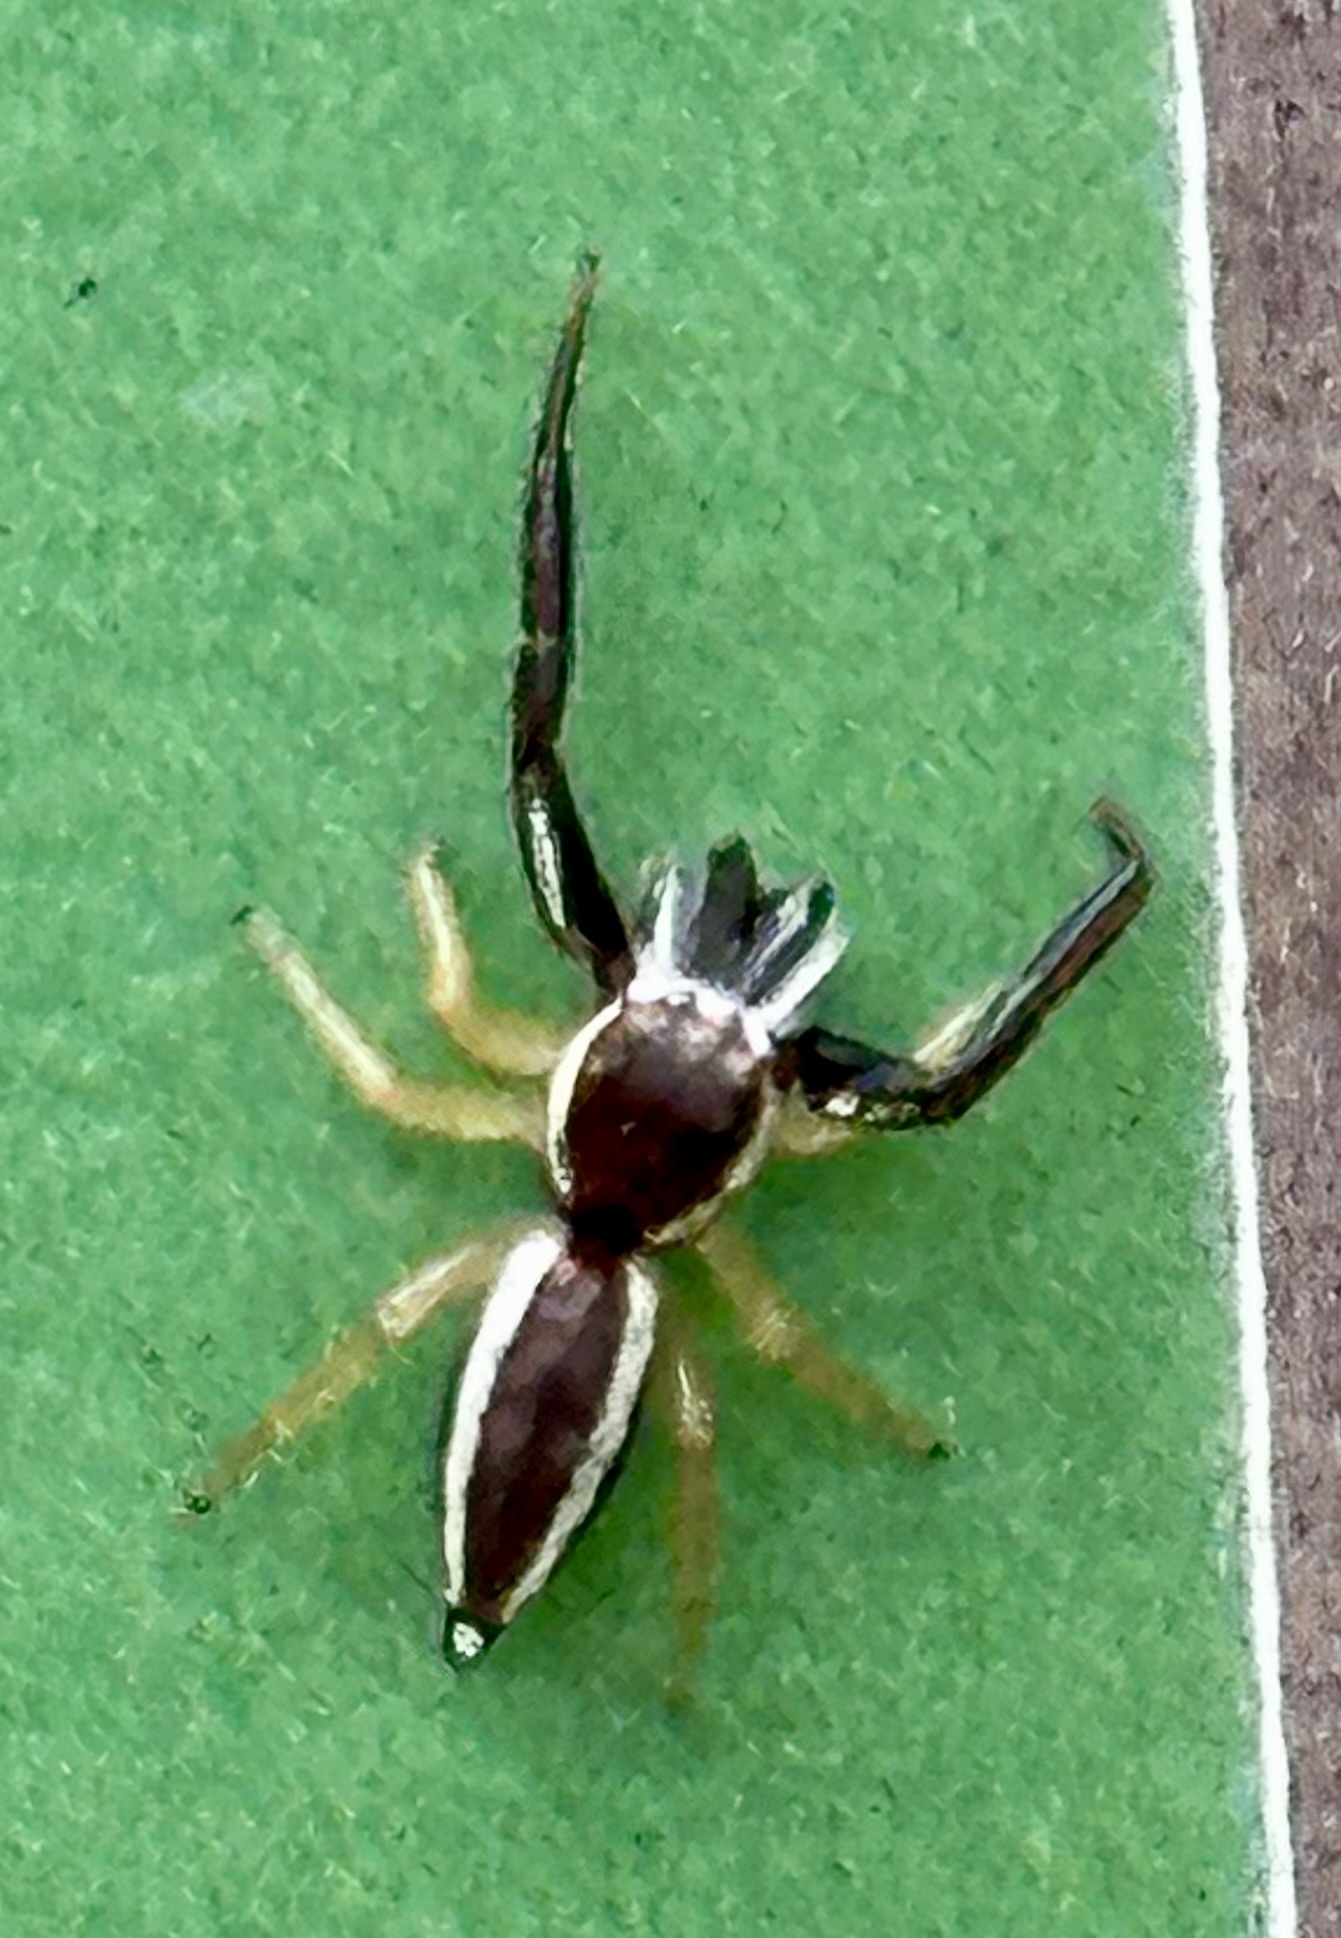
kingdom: Animalia
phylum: Arthropoda
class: Arachnida
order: Araneae
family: Salticidae
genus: Hentzia
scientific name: Hentzia palmarum
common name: Common hentz jumping spider
